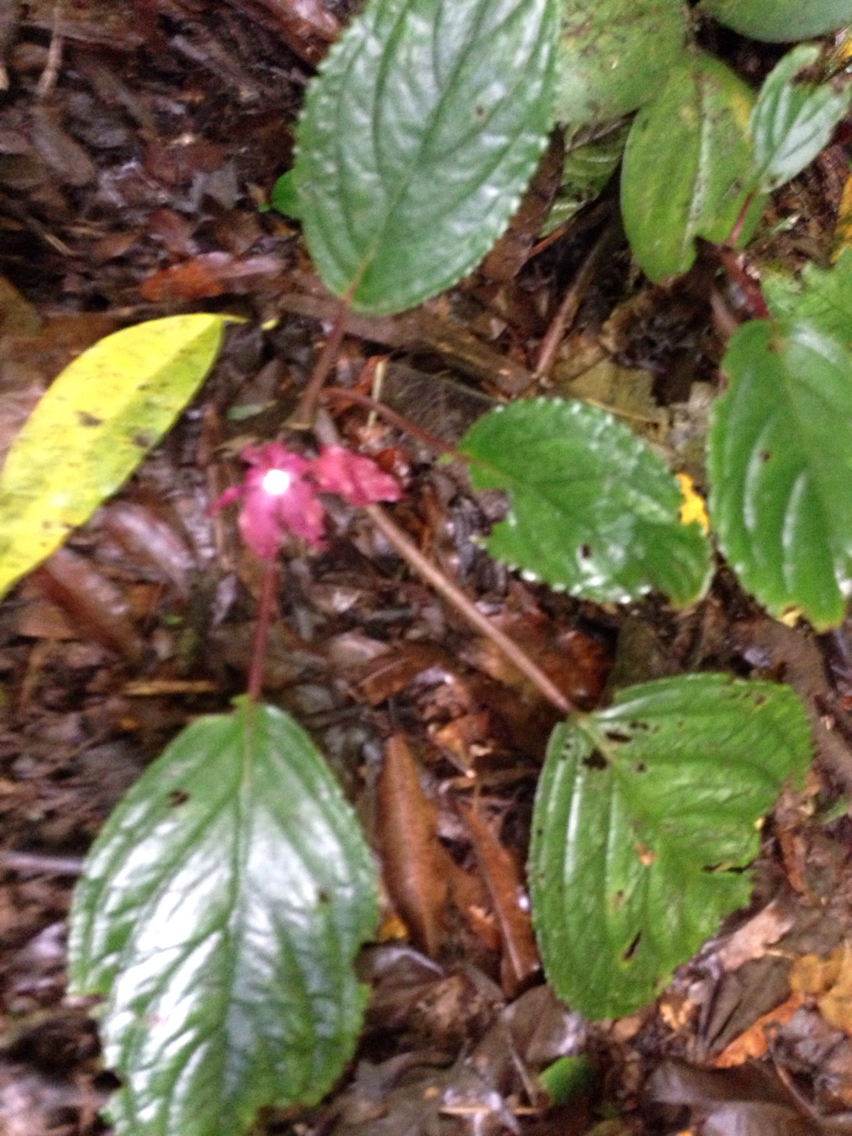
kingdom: Plantae
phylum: Tracheophyta
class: Magnoliopsida
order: Lamiales
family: Gesneriaceae
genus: Drymonia
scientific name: Drymonia turrialvae
